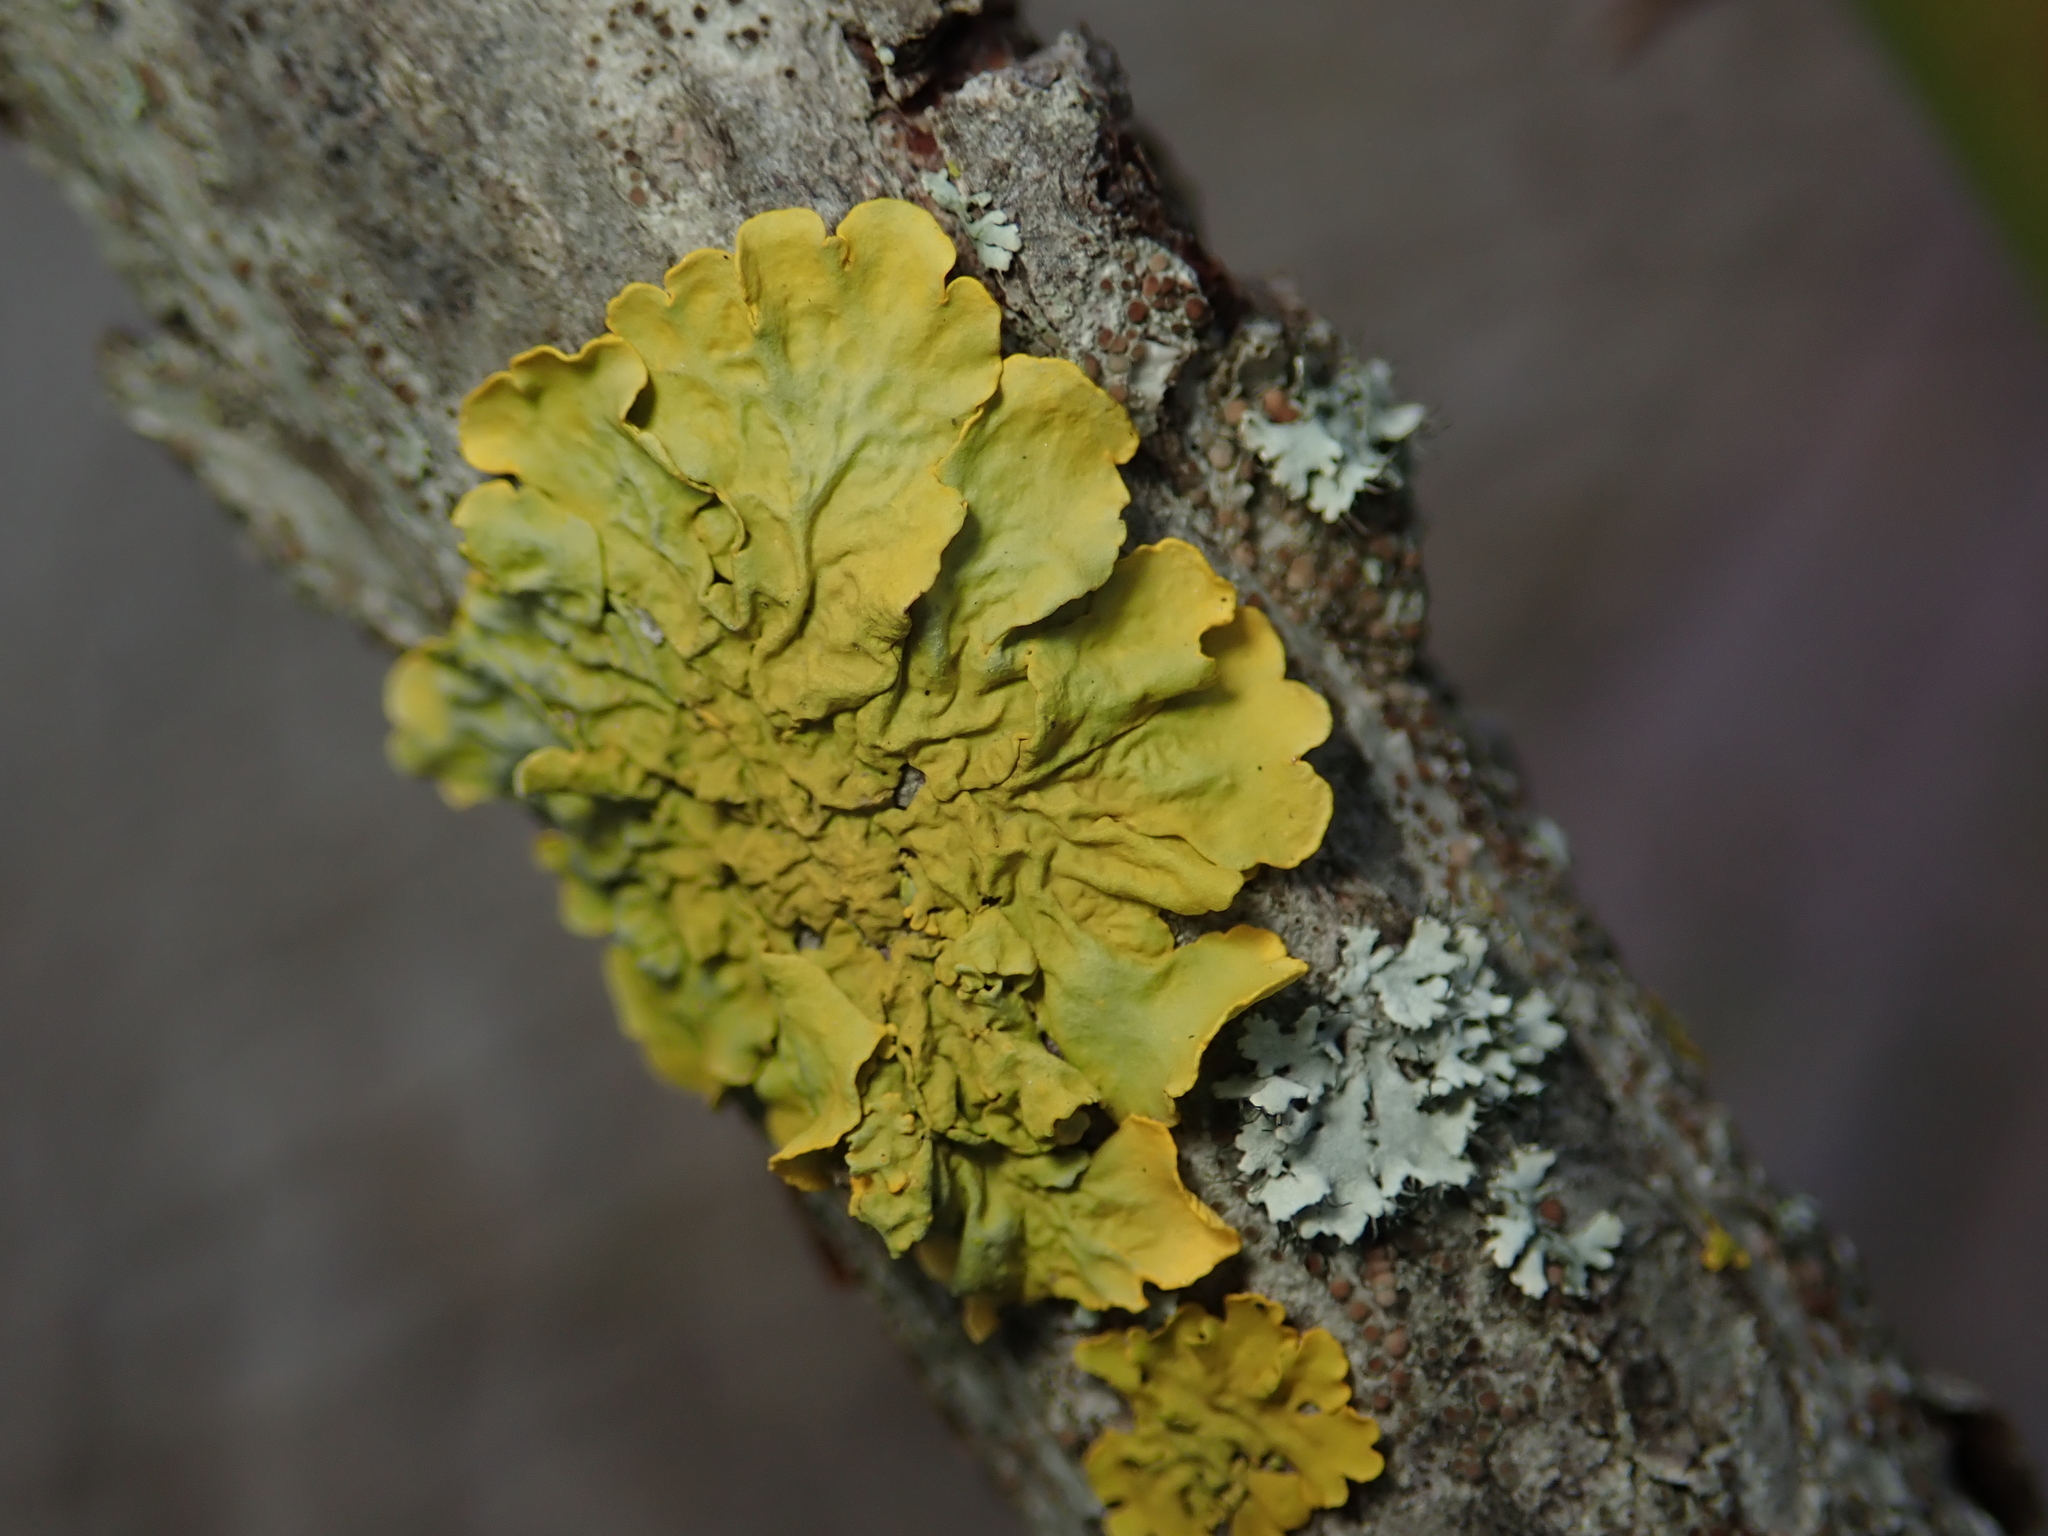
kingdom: Fungi
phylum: Ascomycota
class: Lecanoromycetes
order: Teloschistales
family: Teloschistaceae
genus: Xanthoria
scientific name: Xanthoria parietina
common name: Common orange lichen
